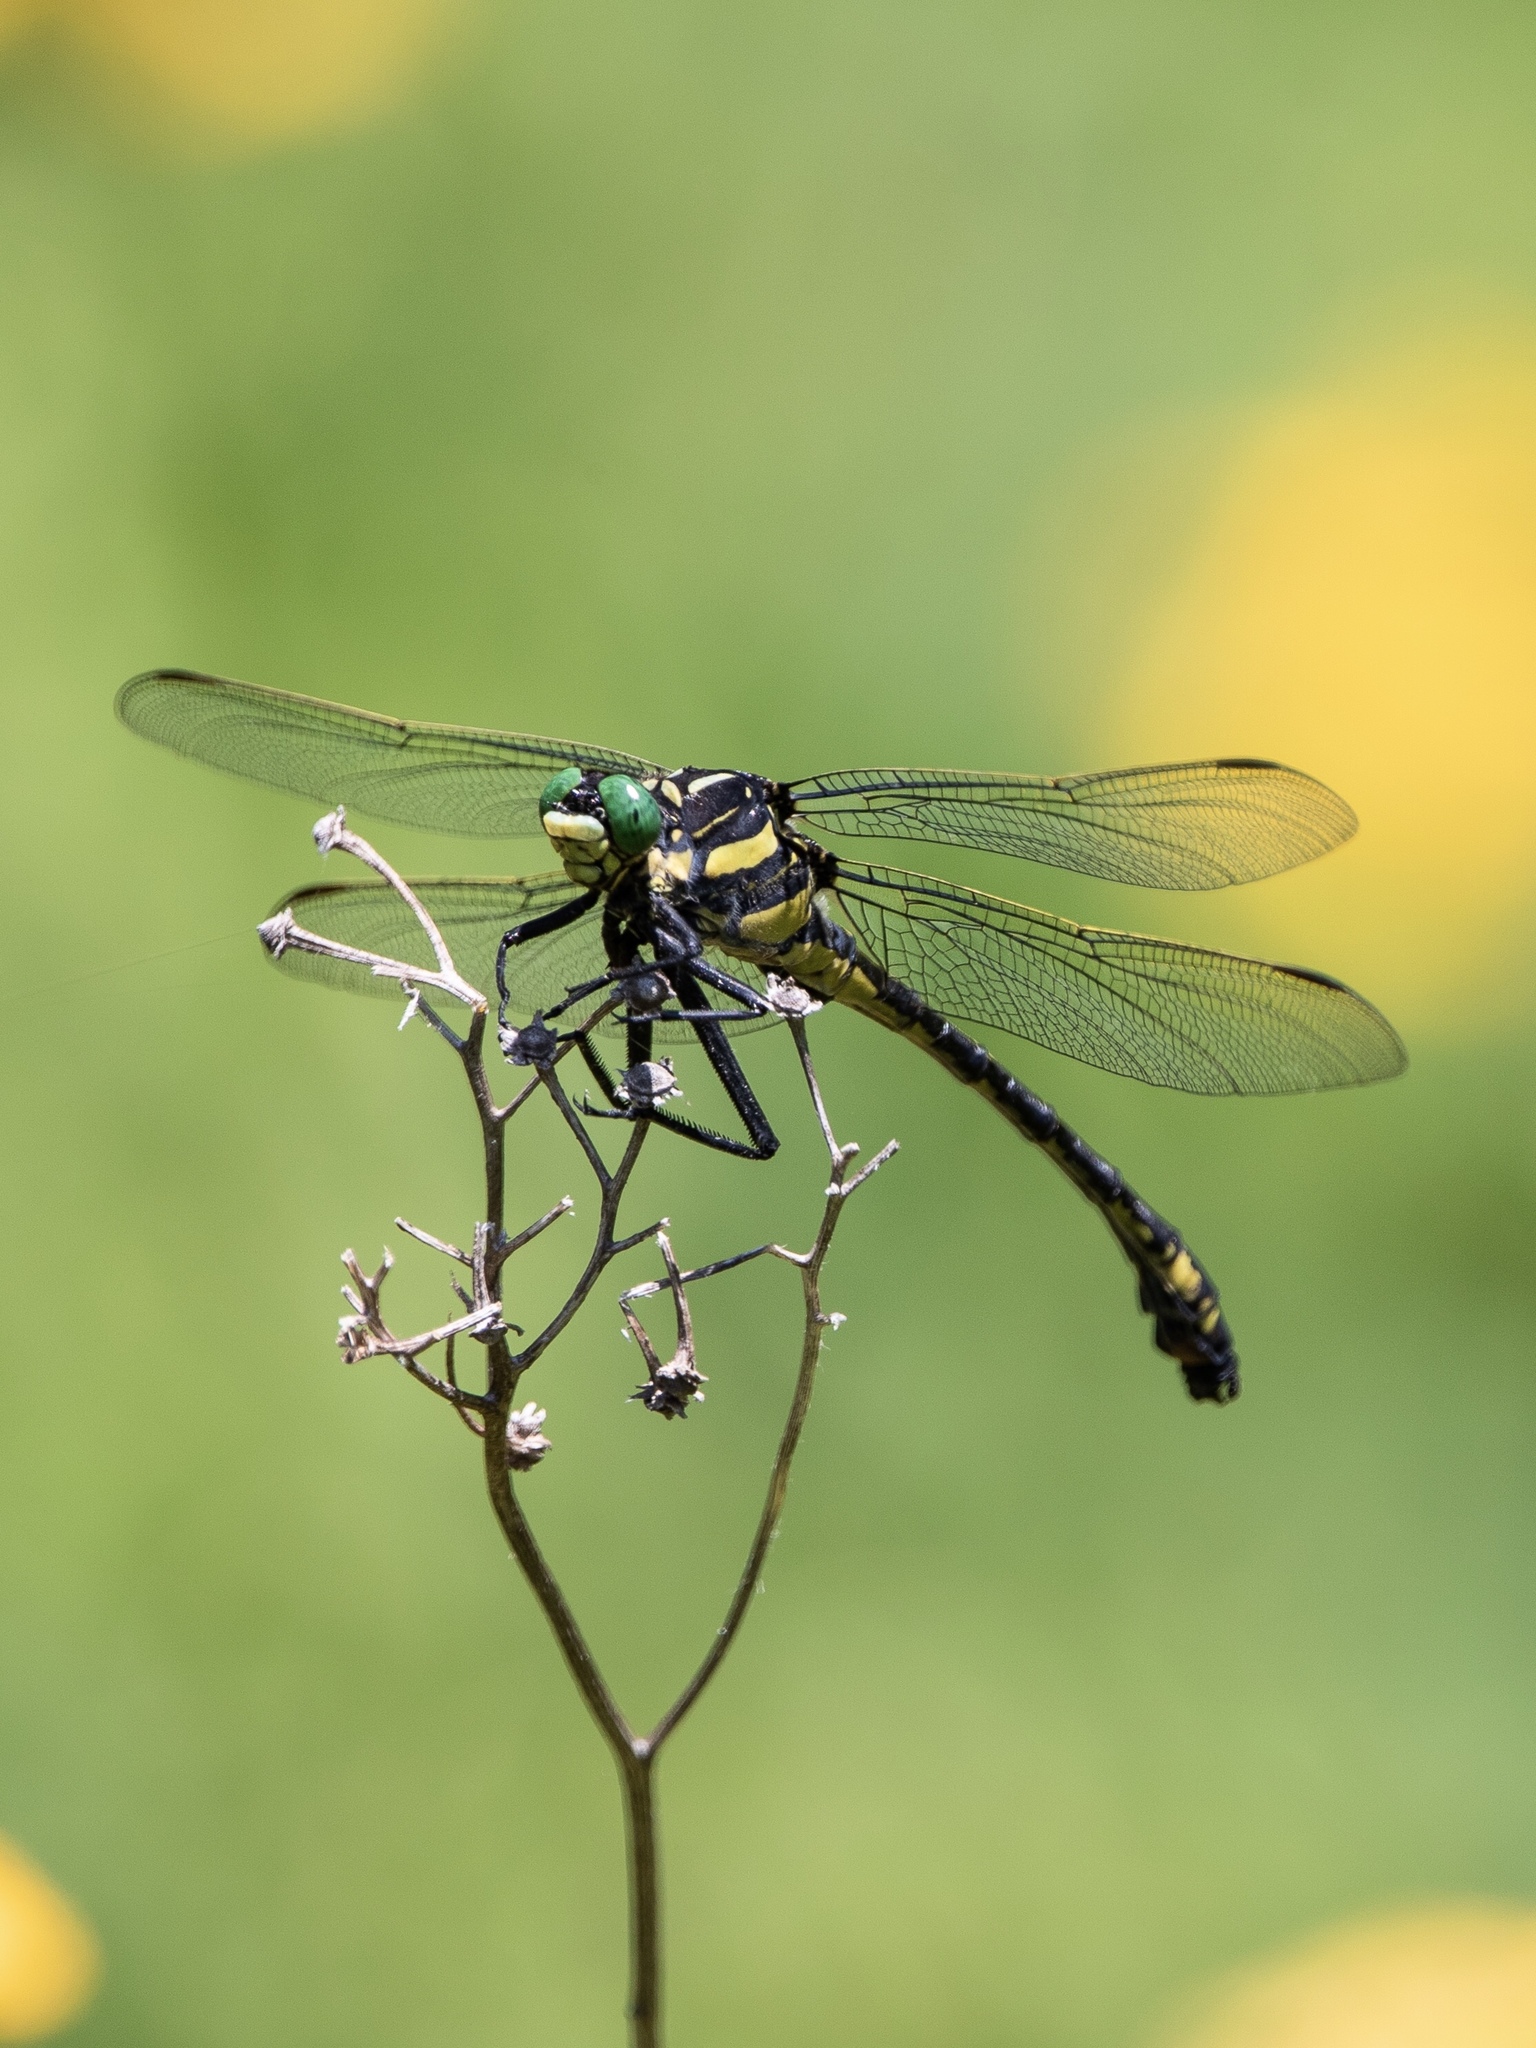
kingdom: Animalia
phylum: Arthropoda
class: Insecta
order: Odonata
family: Gomphidae
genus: Hagenius
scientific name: Hagenius brevistylus
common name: Dragonhunter
